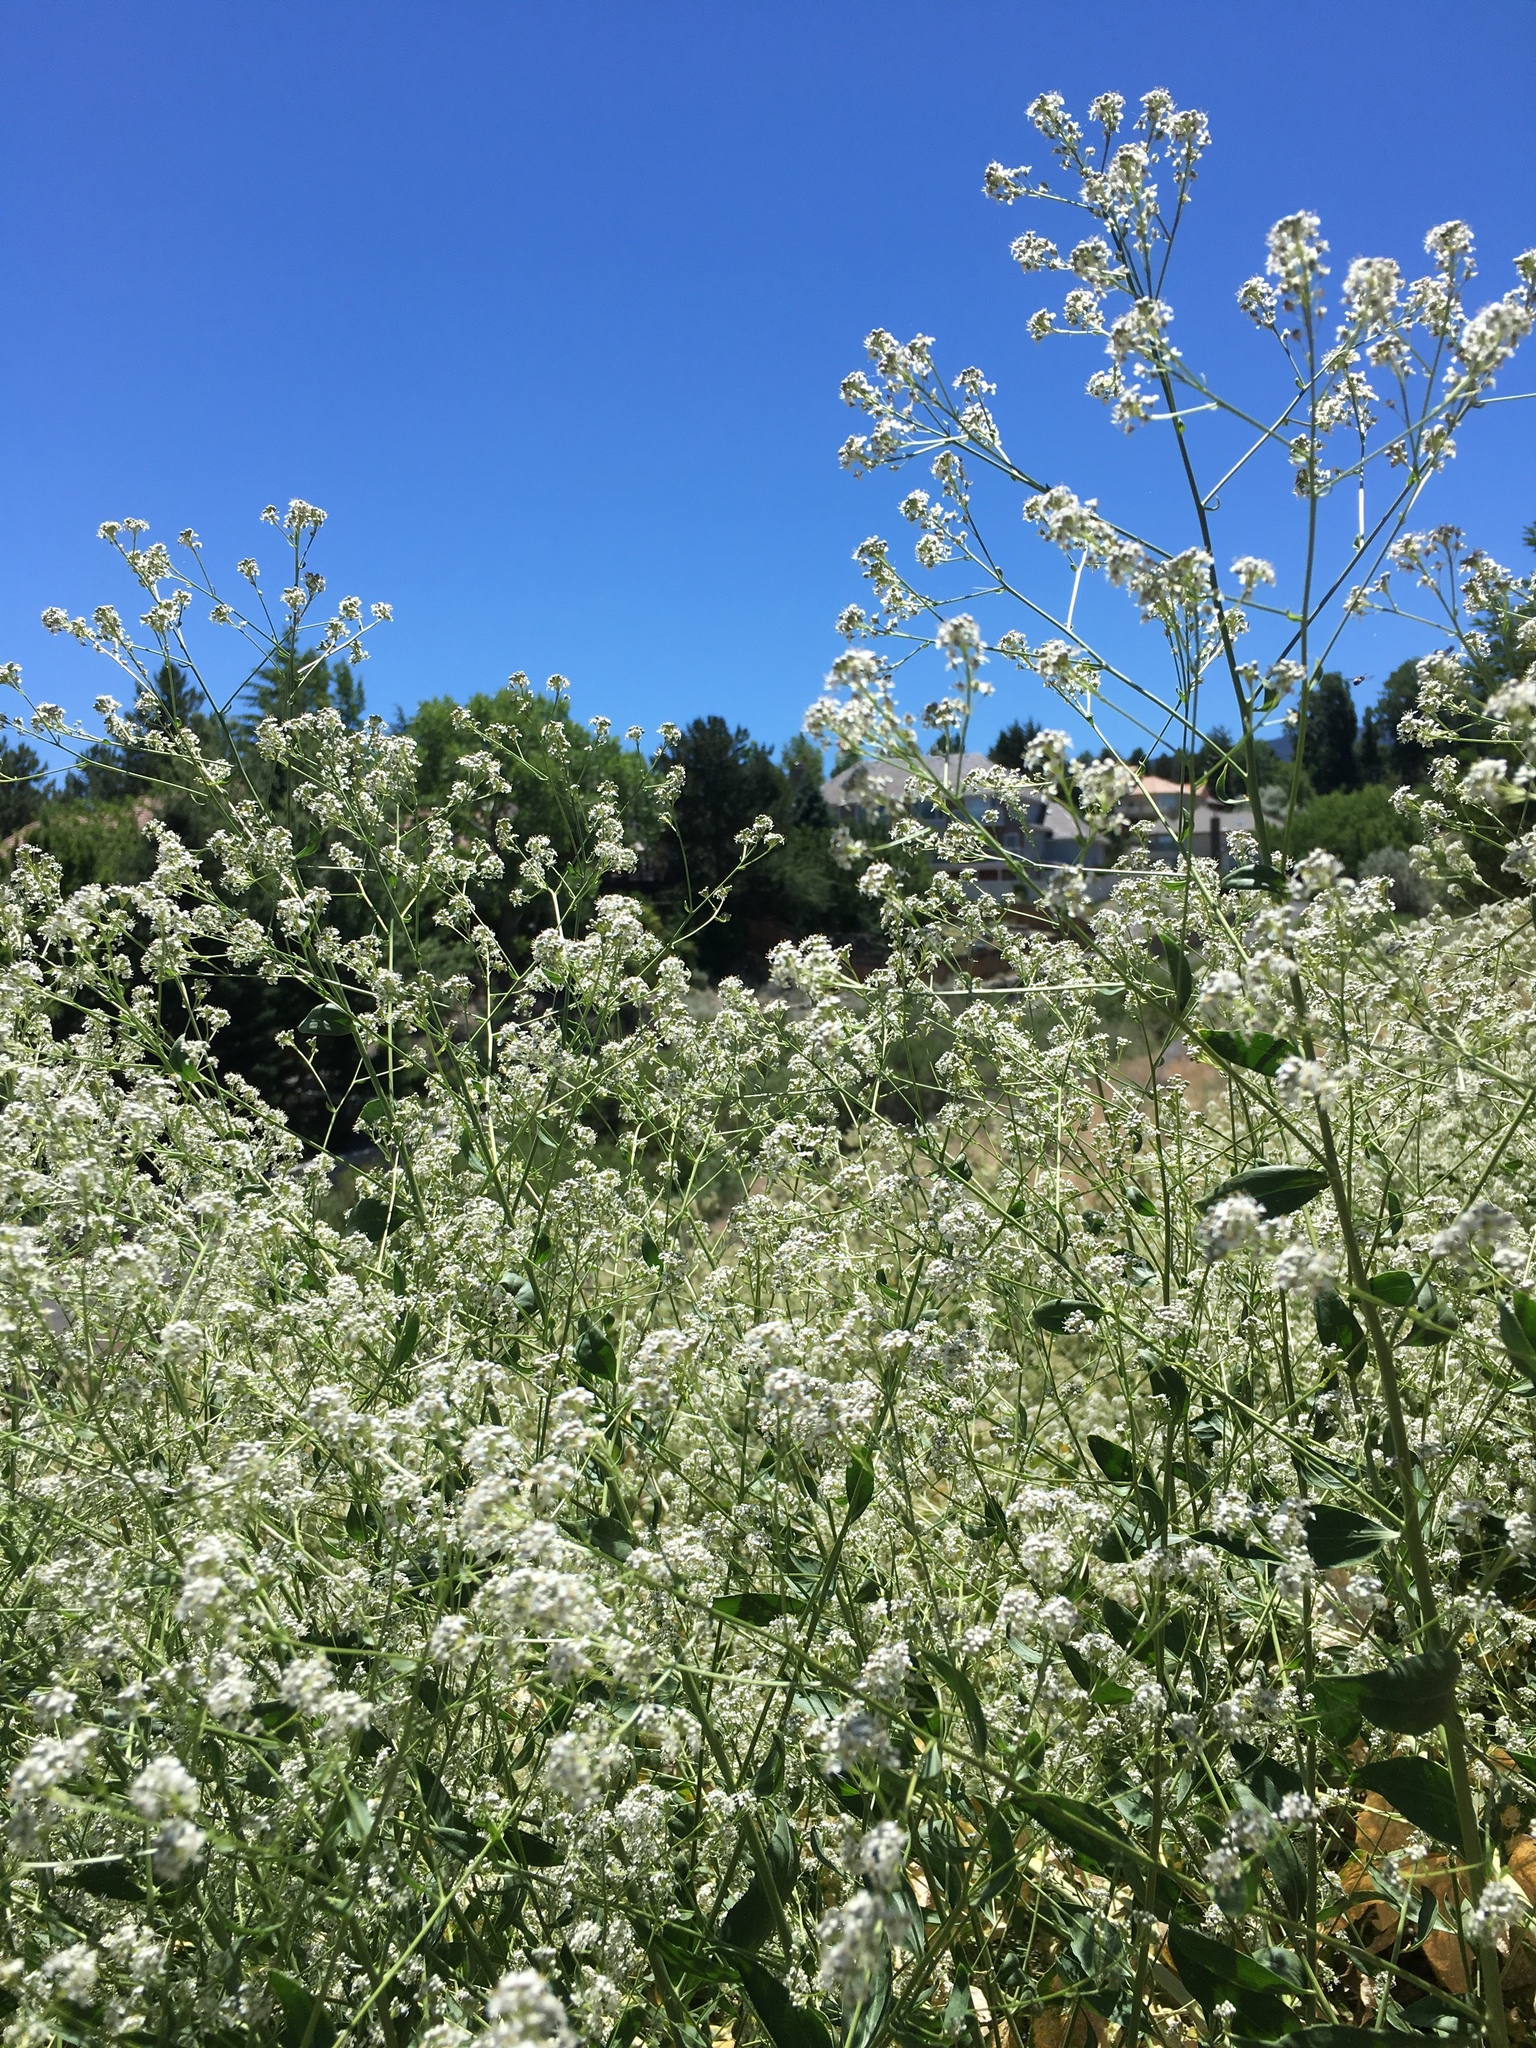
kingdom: Plantae
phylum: Tracheophyta
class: Magnoliopsida
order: Brassicales
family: Brassicaceae
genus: Lepidium
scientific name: Lepidium latifolium
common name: Dittander
